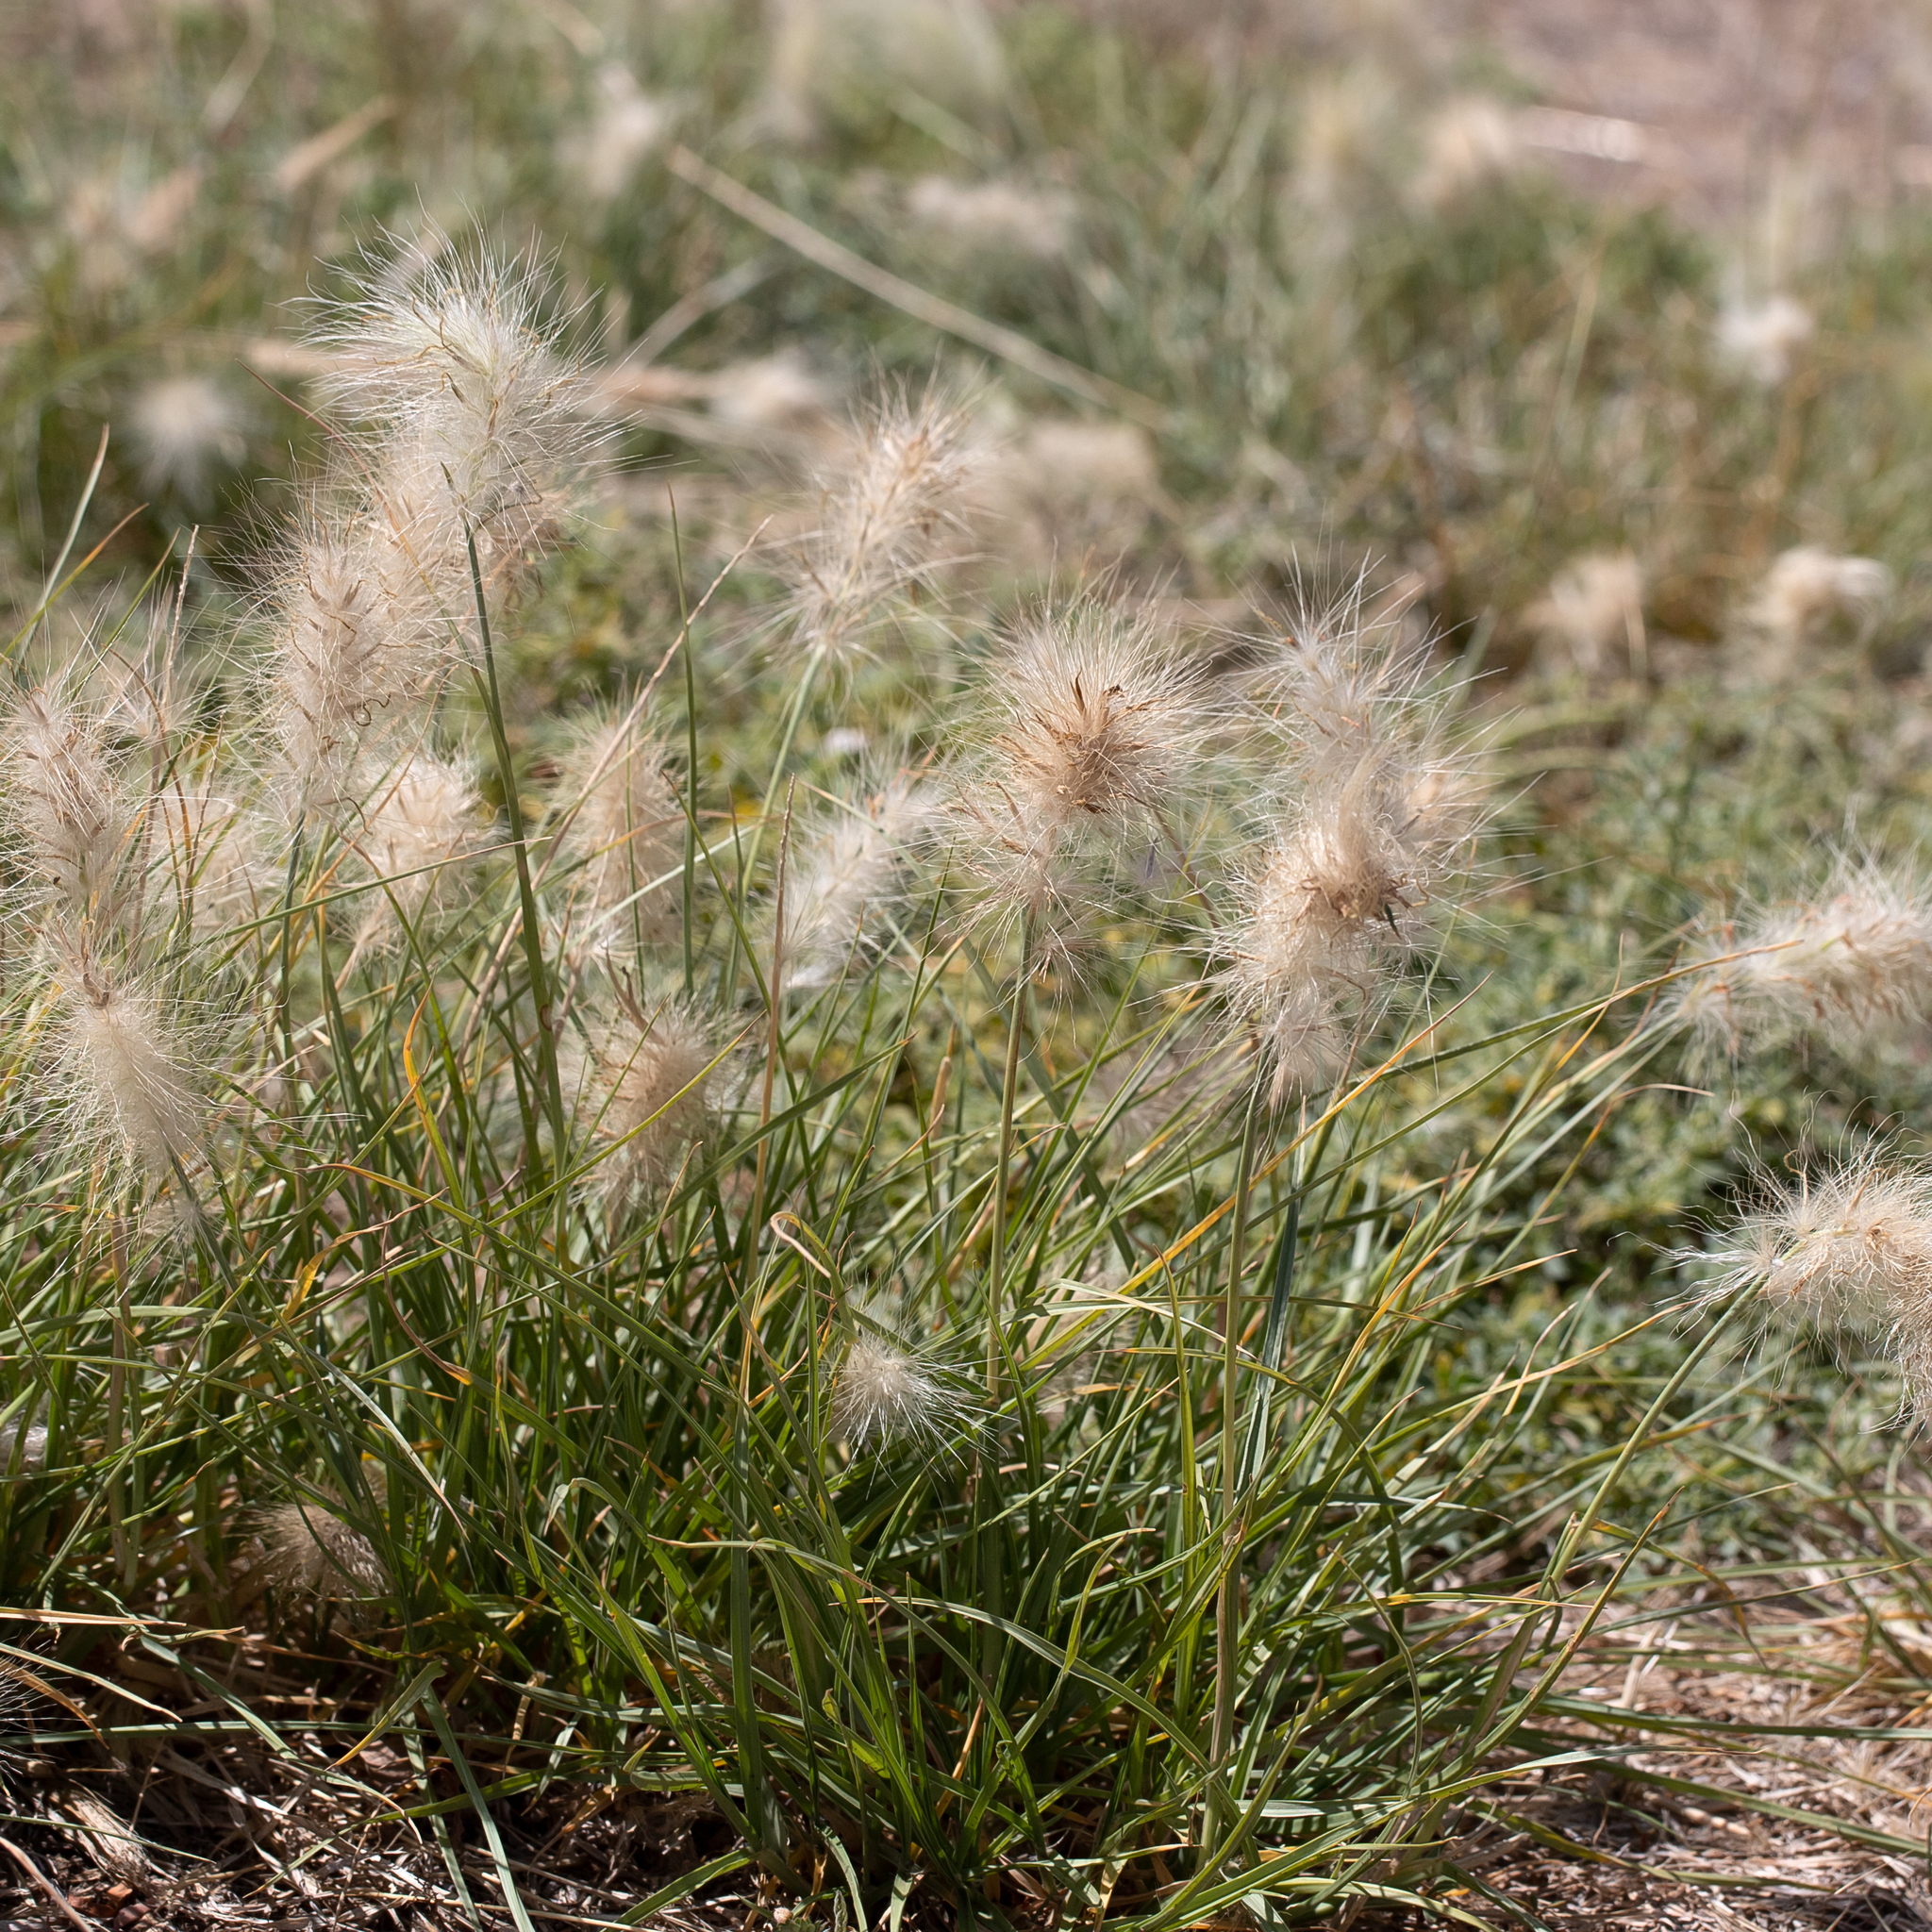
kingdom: Plantae
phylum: Tracheophyta
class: Liliopsida
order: Poales
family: Poaceae
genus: Cenchrus
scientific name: Cenchrus longisetus
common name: Feathertop
